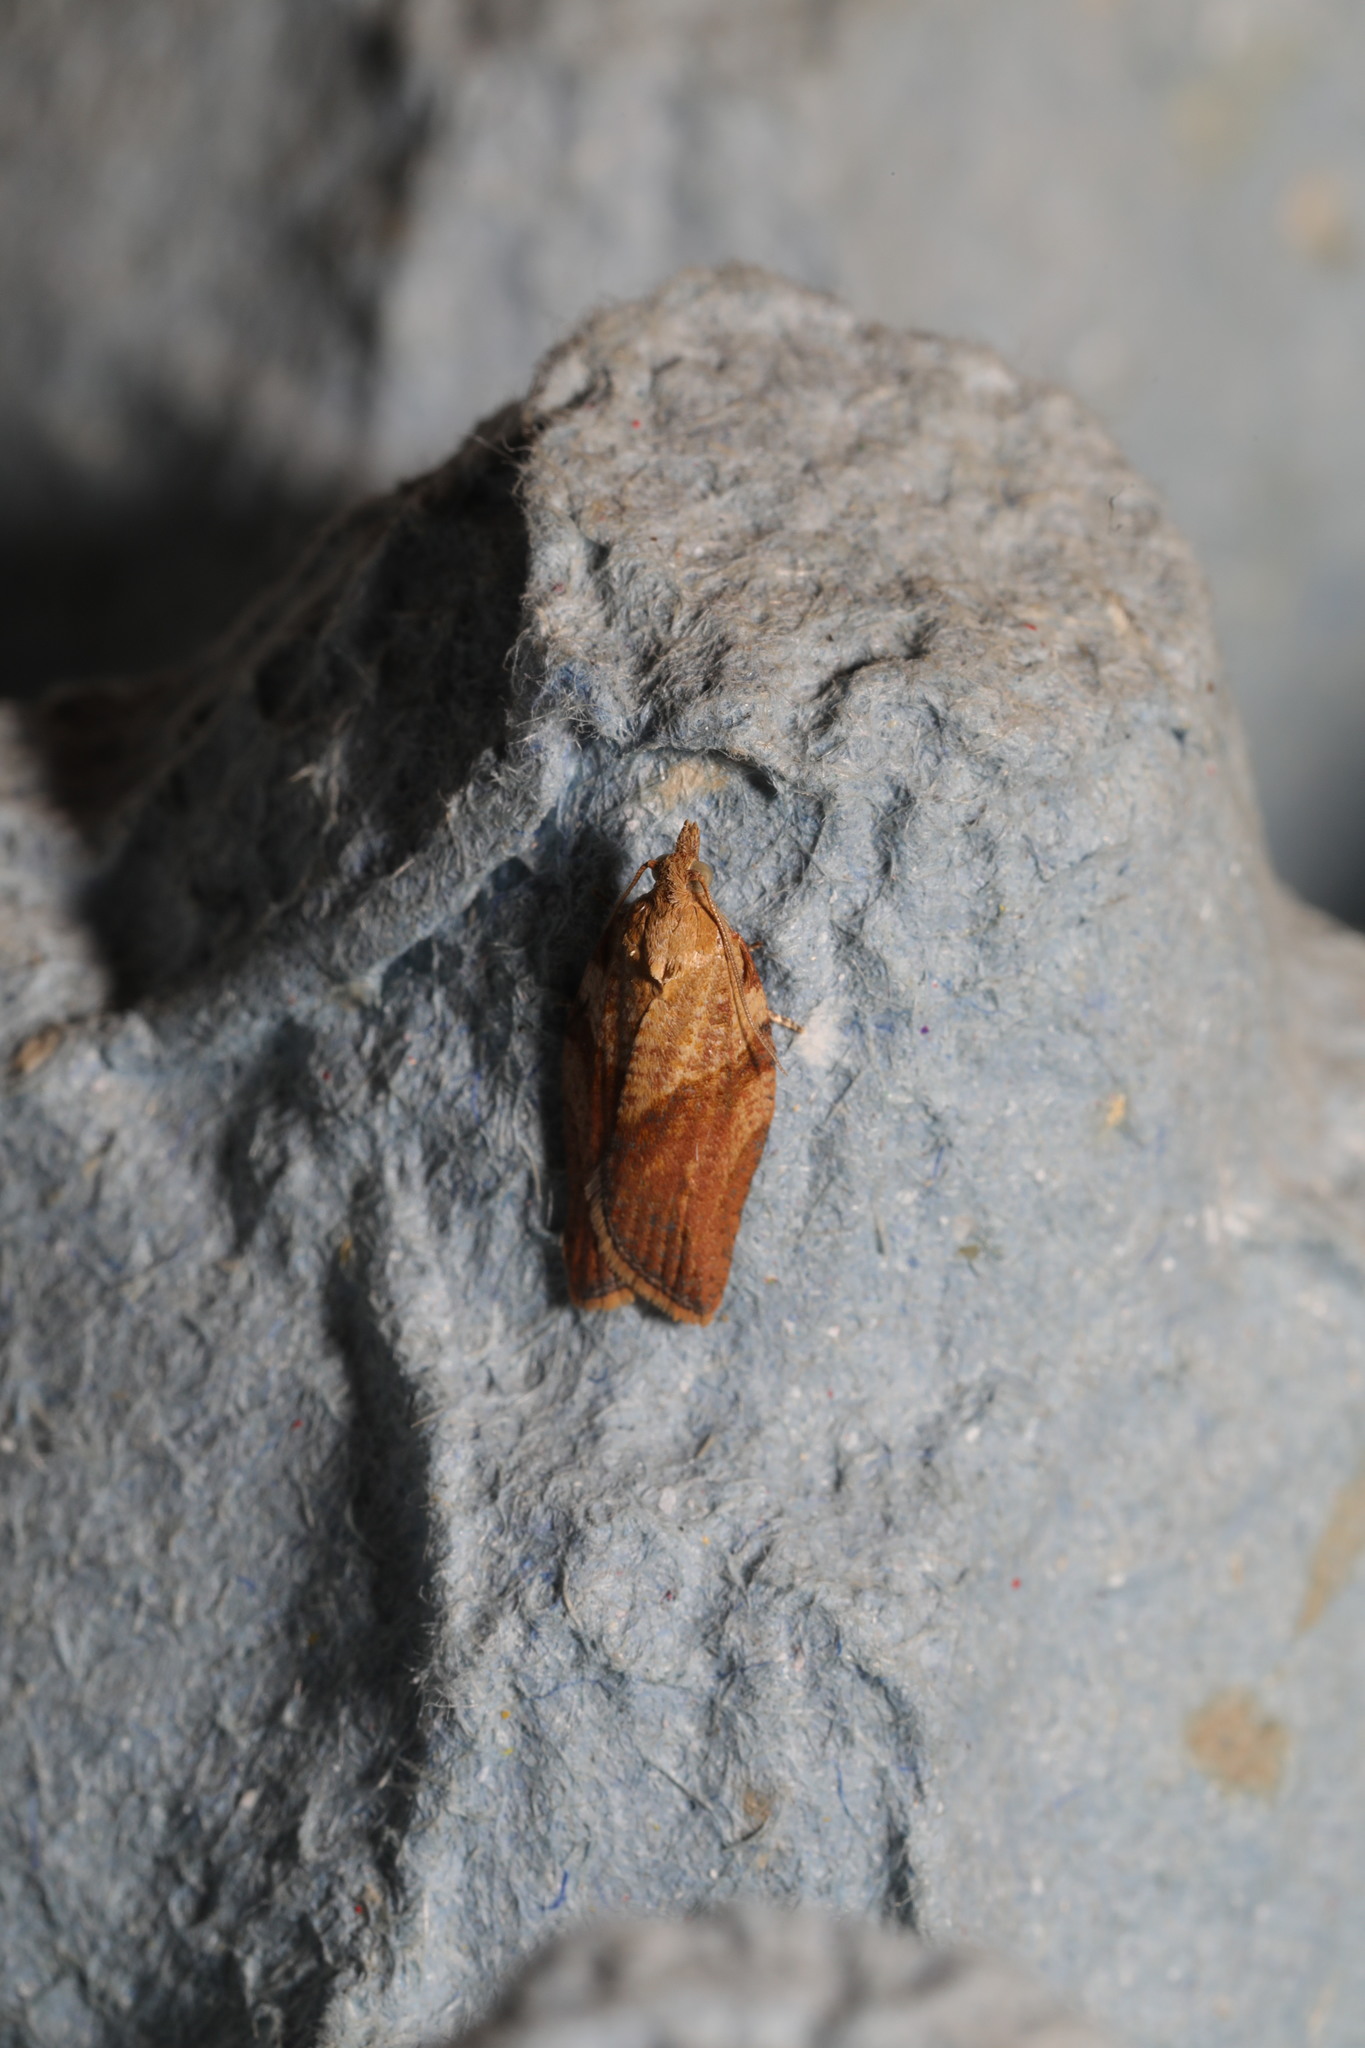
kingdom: Animalia
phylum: Arthropoda
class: Insecta
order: Lepidoptera
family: Tortricidae
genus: Epiphyas
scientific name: Epiphyas postvittana
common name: Light brown apple moth
